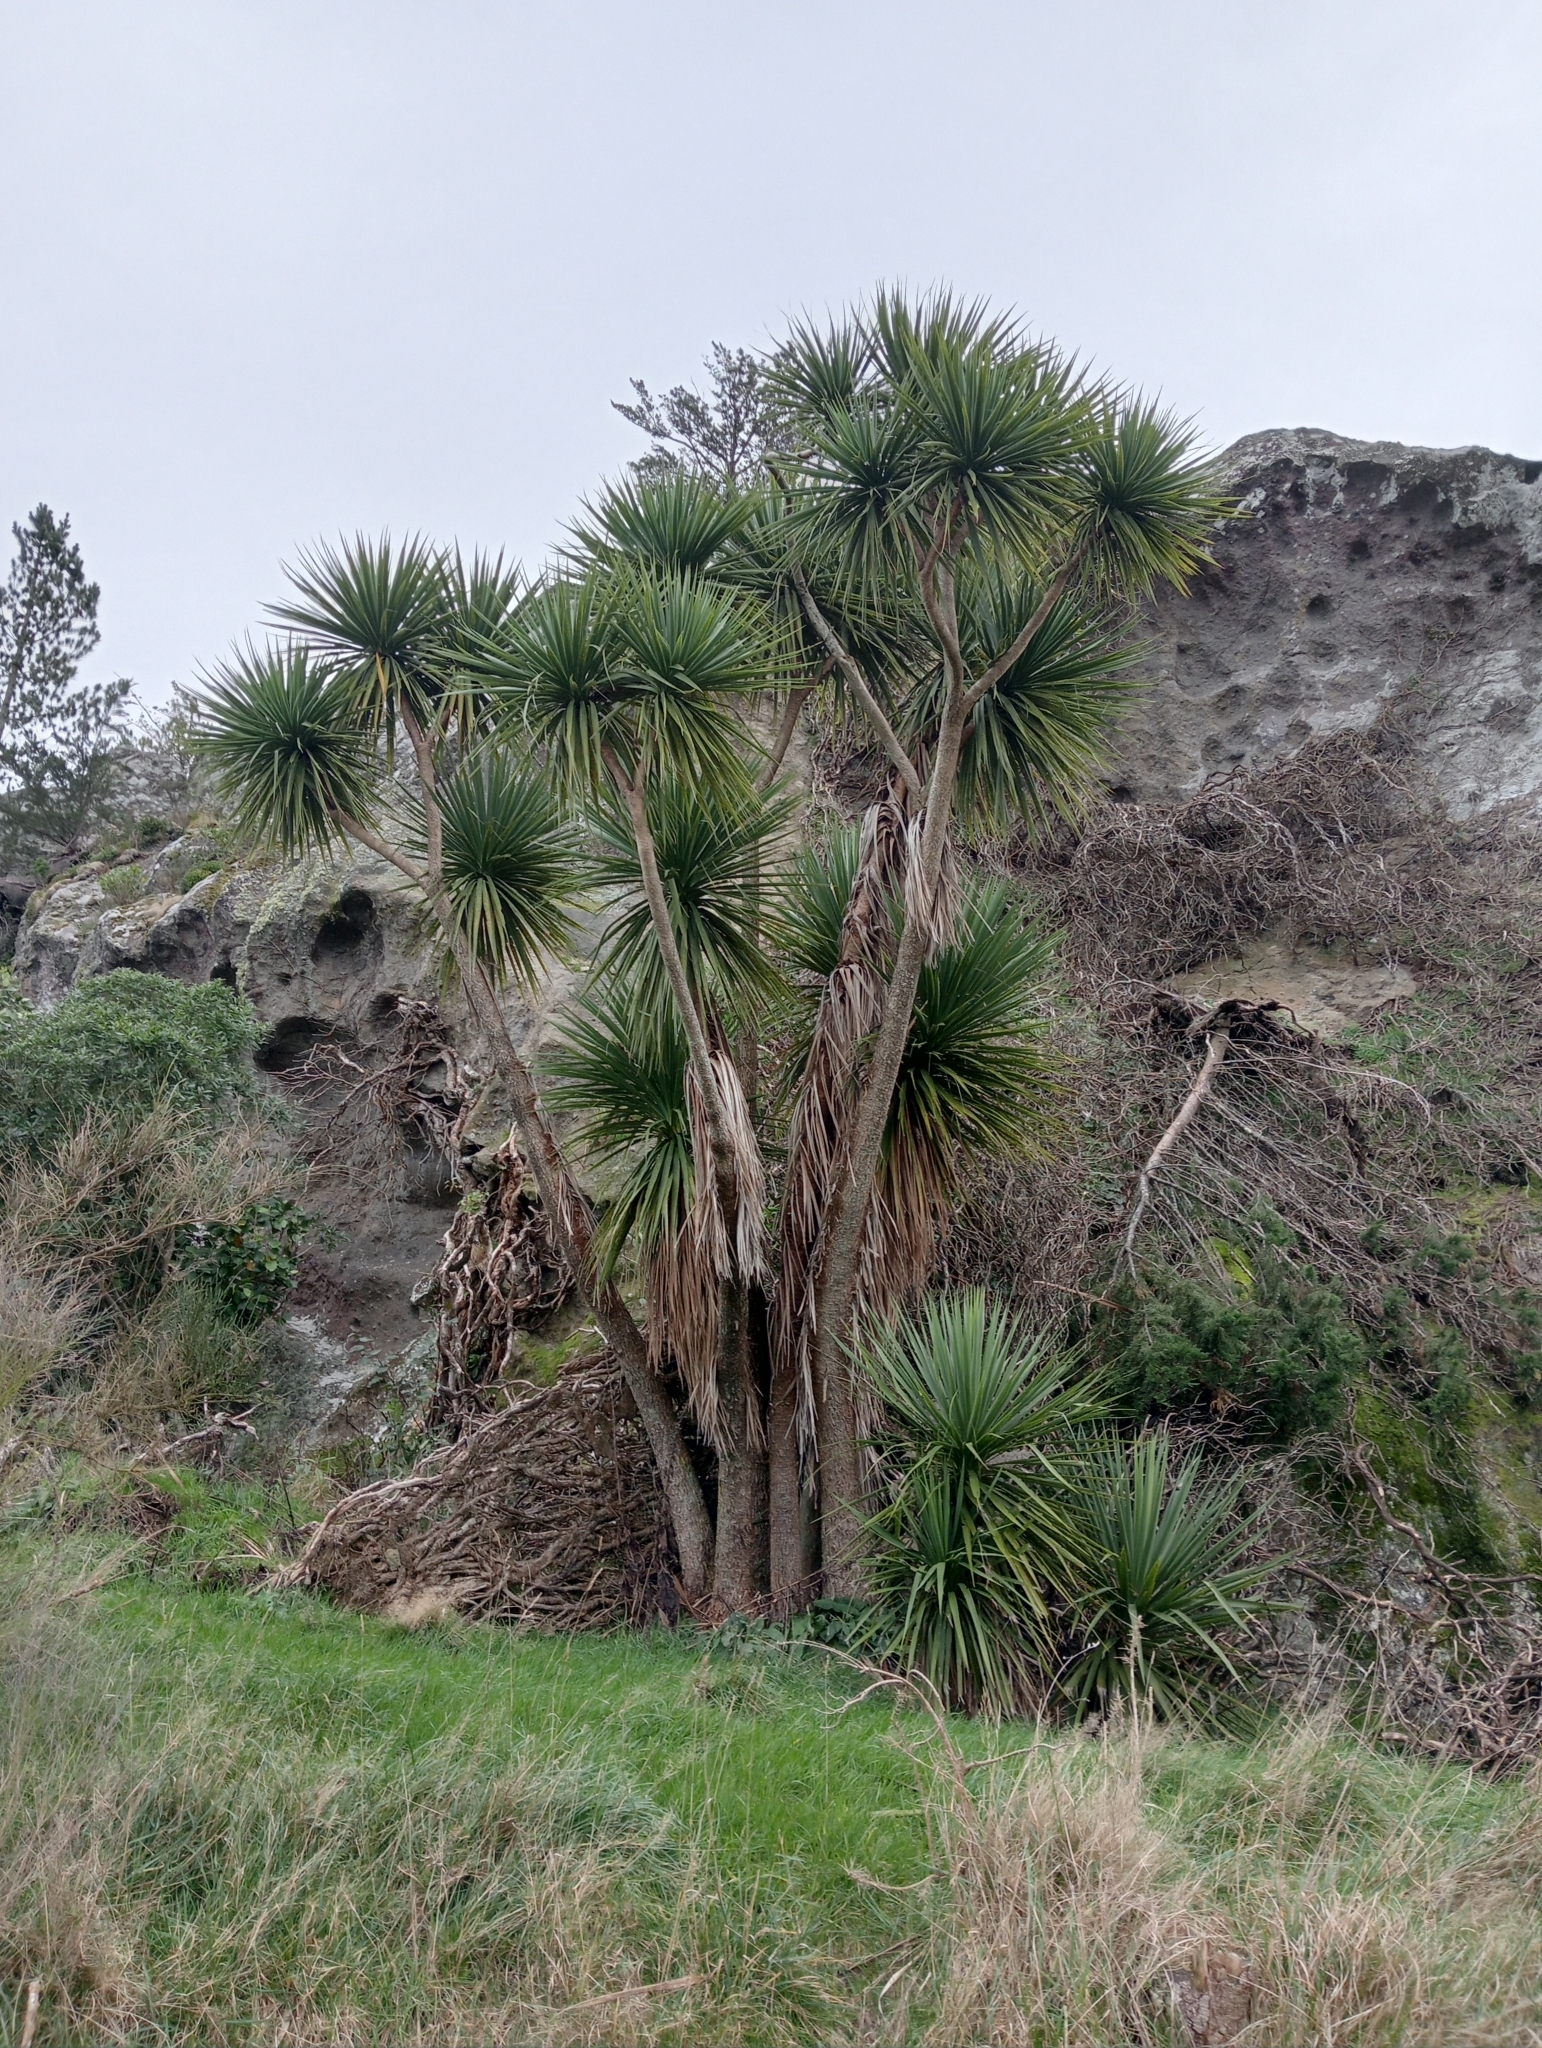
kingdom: Plantae
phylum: Tracheophyta
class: Liliopsida
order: Asparagales
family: Asparagaceae
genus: Cordyline
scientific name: Cordyline australis
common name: Cabbage-palm
